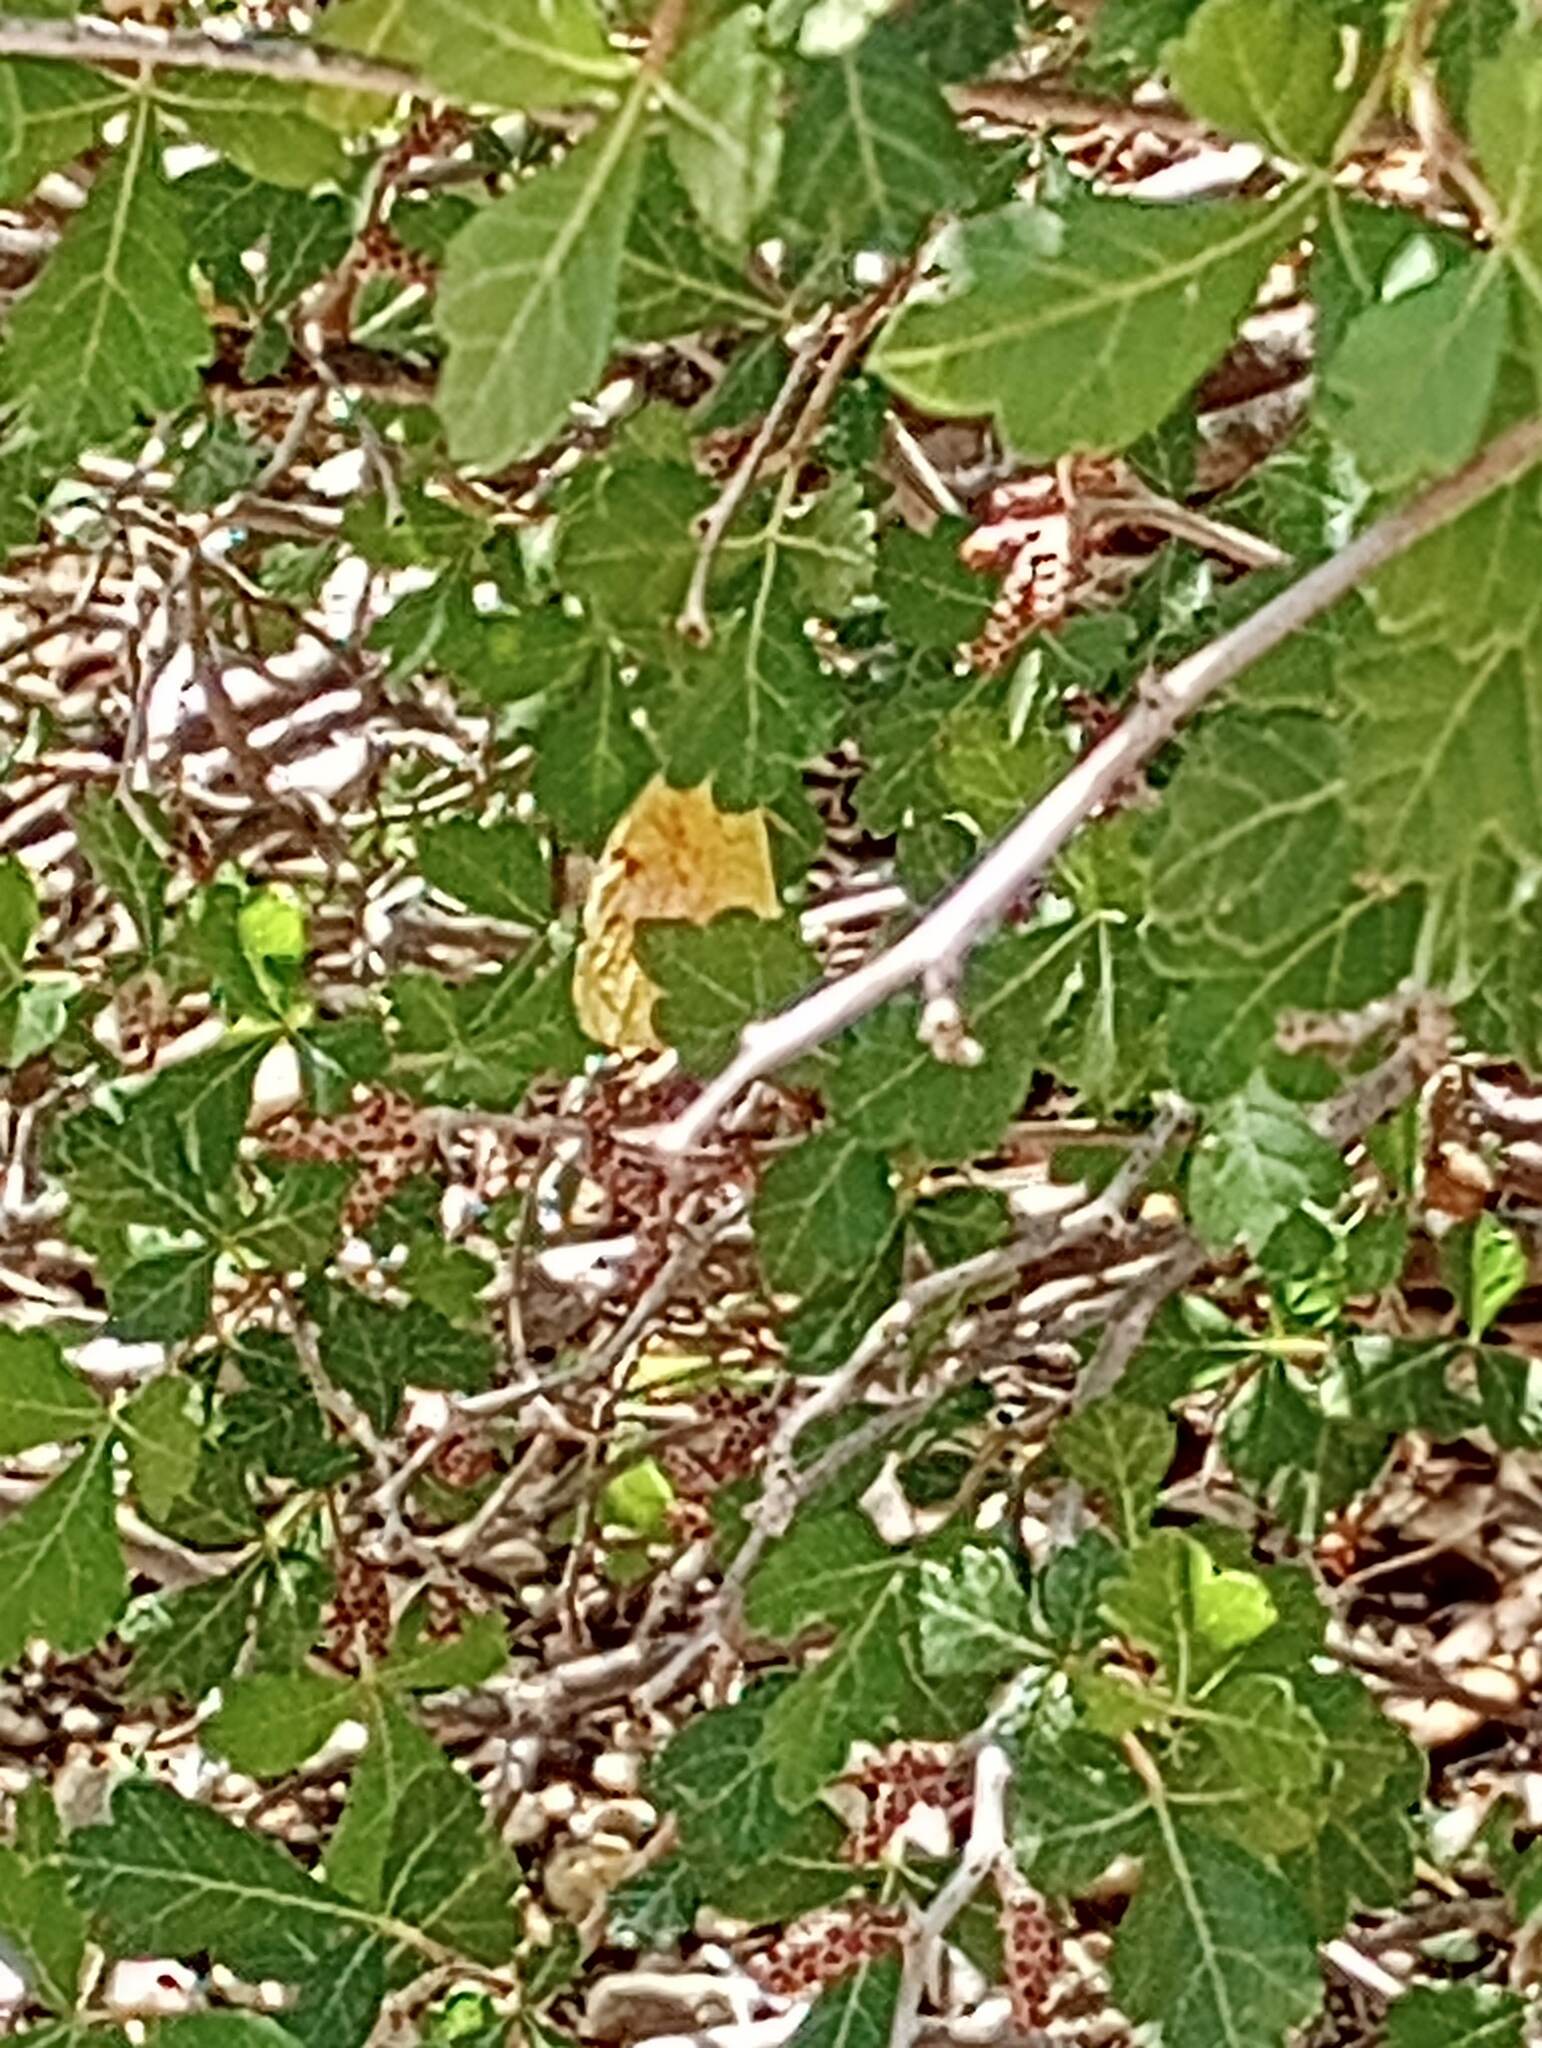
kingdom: Animalia
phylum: Arthropoda
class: Insecta
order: Lepidoptera
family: Pieridae
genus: Abaeis
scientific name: Abaeis nicippe
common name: Sleepy orange
